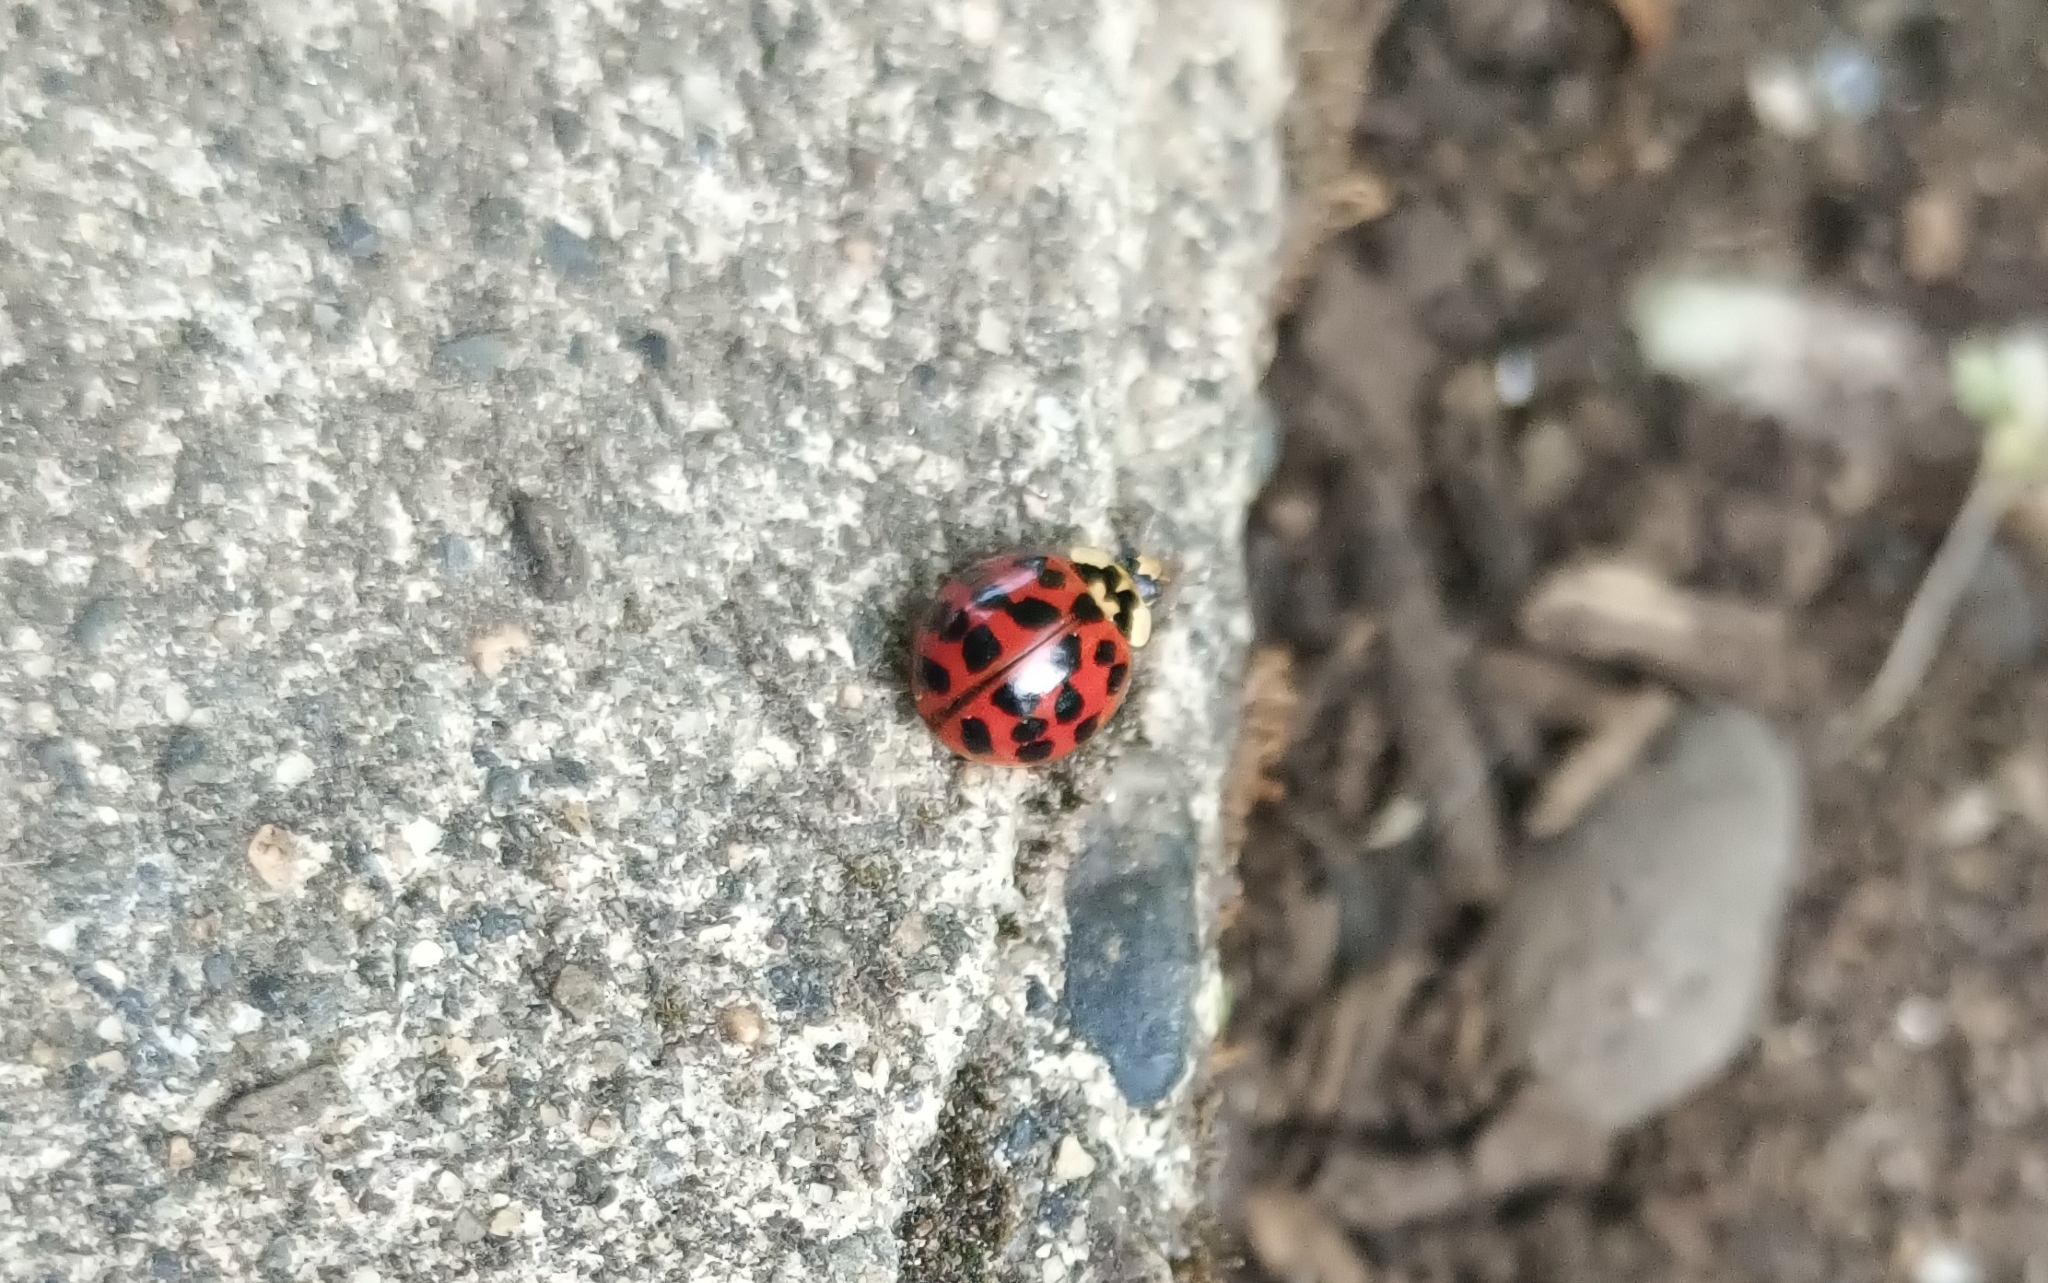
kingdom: Animalia
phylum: Arthropoda
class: Insecta
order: Coleoptera
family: Coccinellidae
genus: Harmonia
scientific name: Harmonia axyridis
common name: Harlequin ladybird
